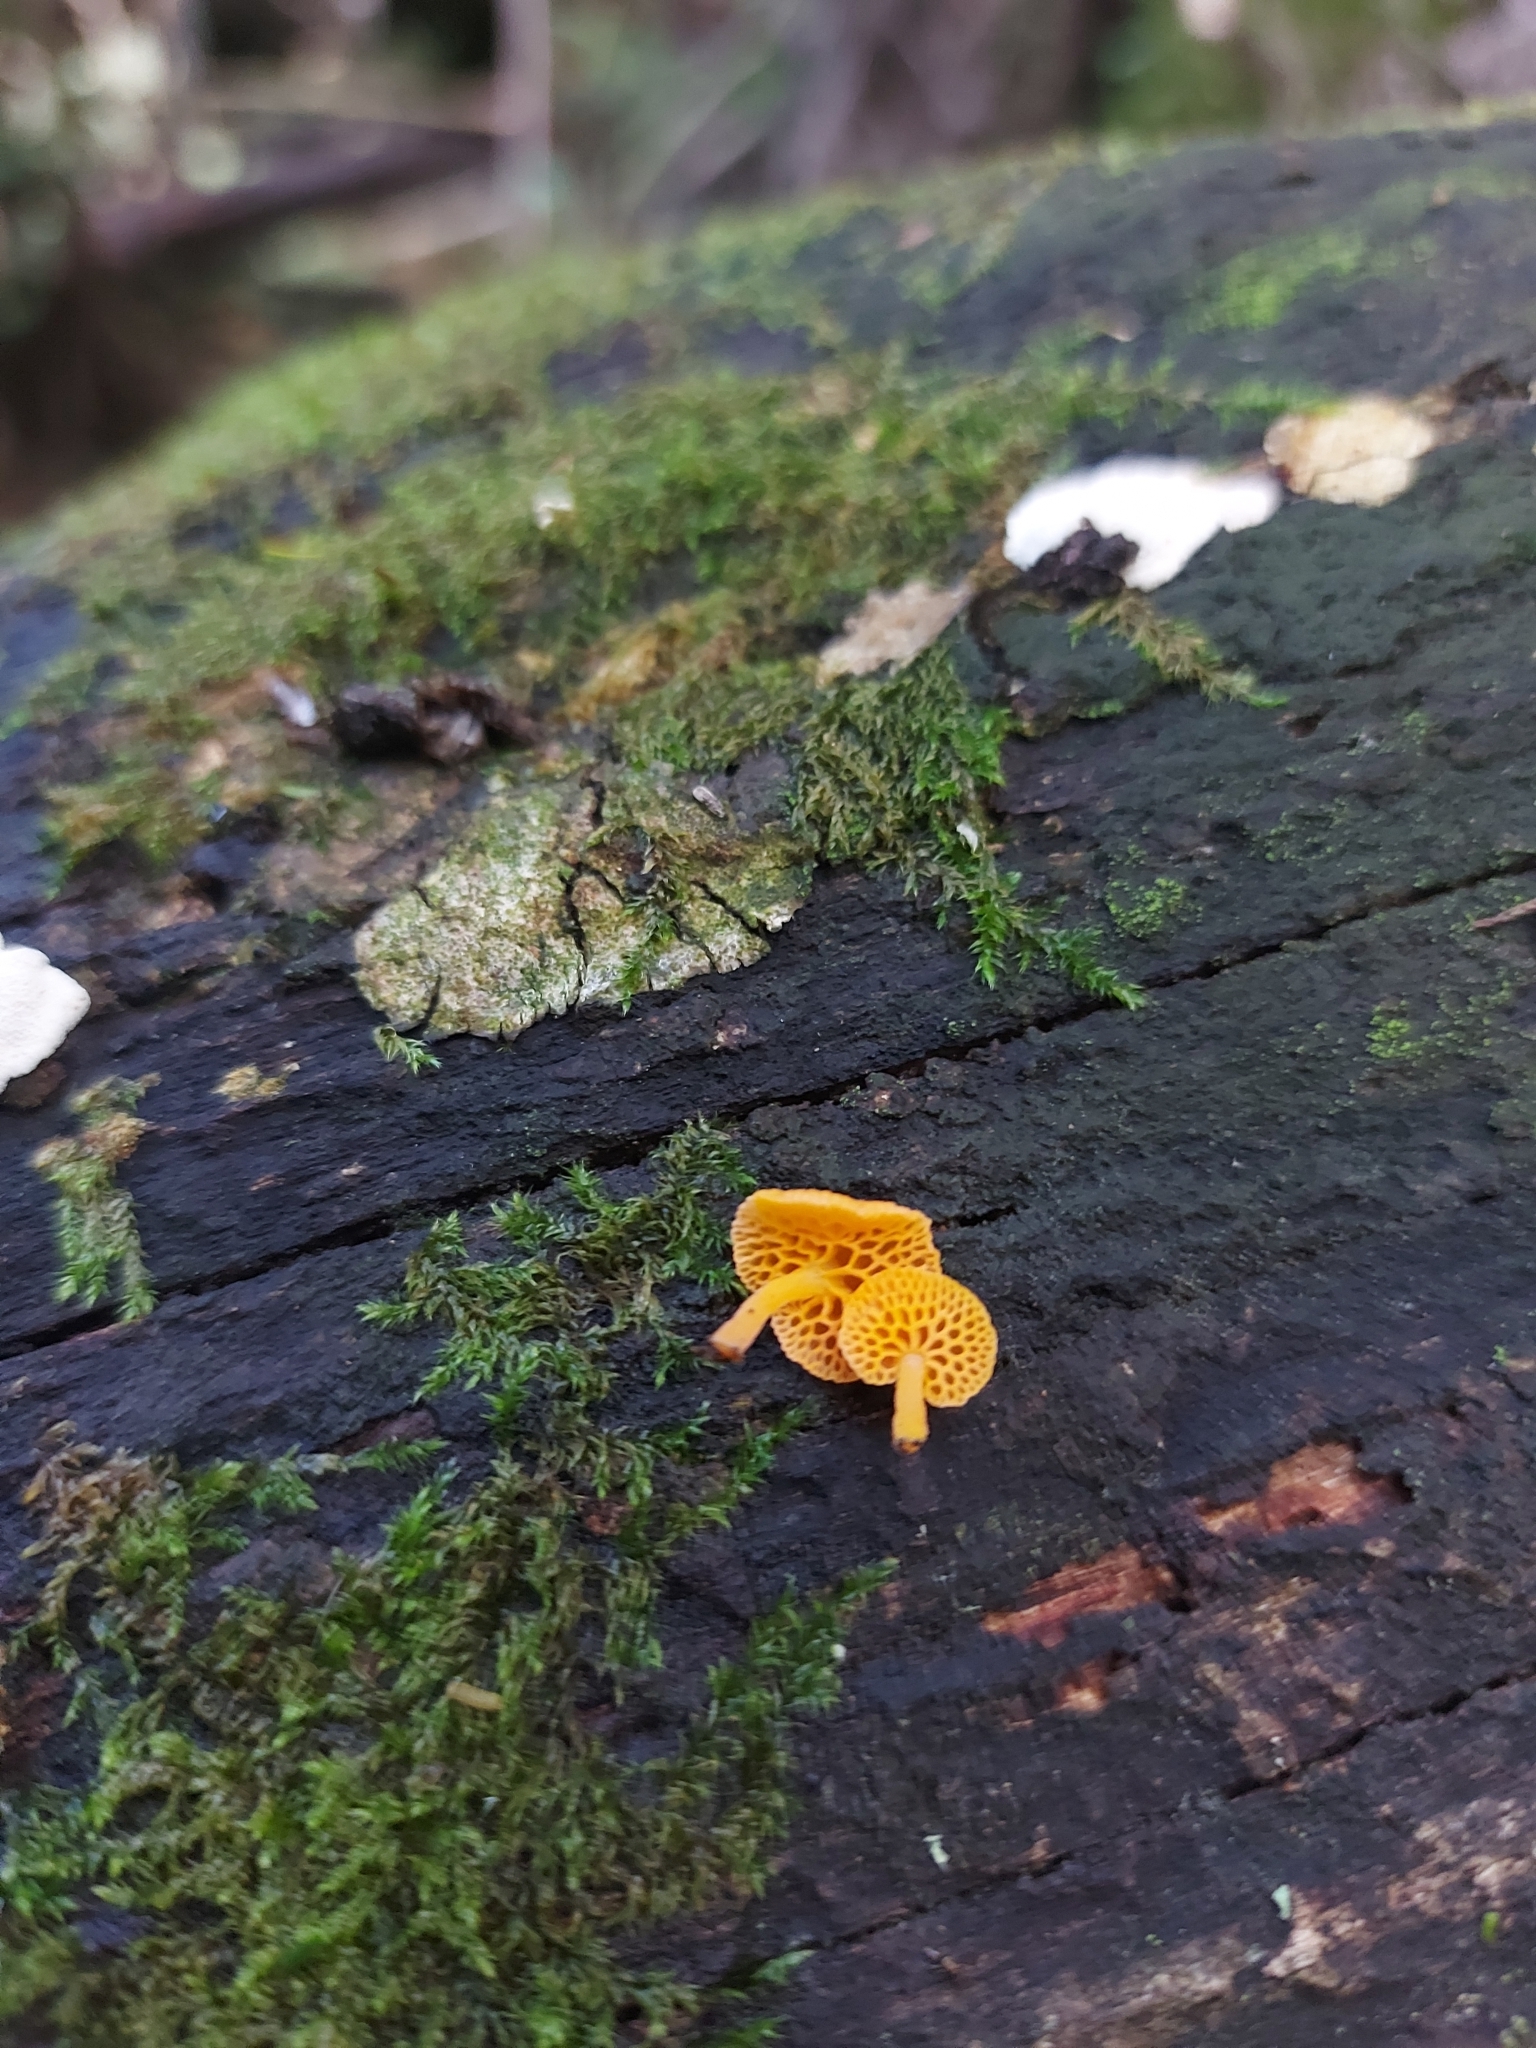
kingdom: Fungi
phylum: Basidiomycota
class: Agaricomycetes
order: Agaricales
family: Mycenaceae
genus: Favolaschia
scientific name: Favolaschia claudopus
